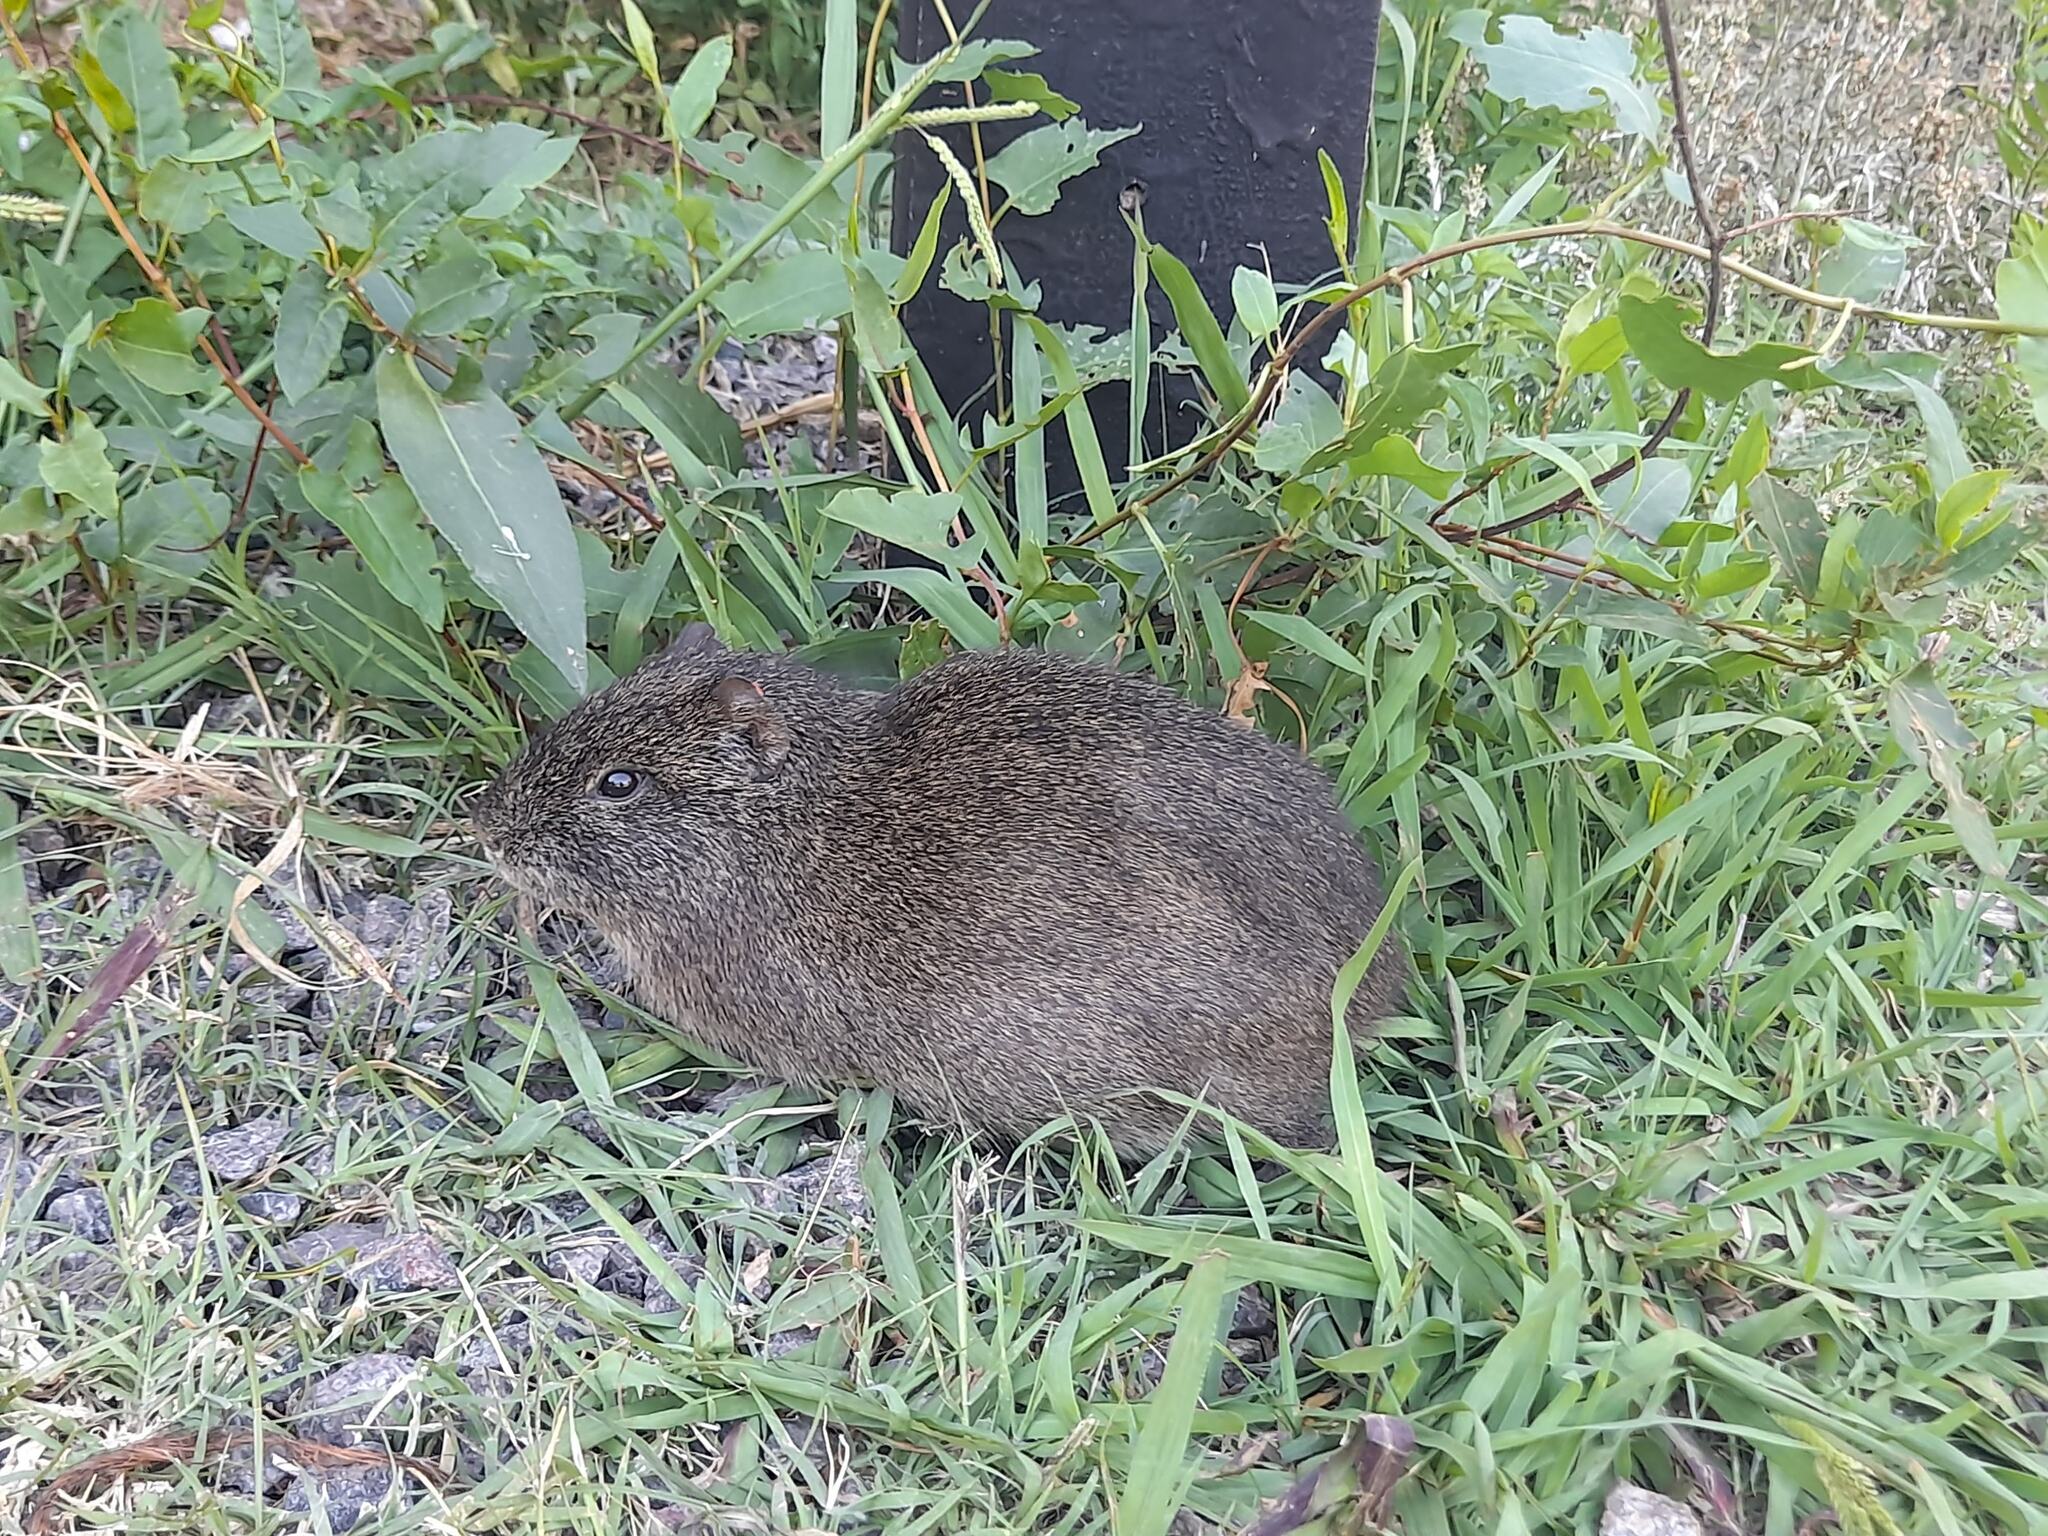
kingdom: Animalia
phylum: Chordata
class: Mammalia
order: Rodentia
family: Caviidae
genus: Cavia
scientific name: Cavia aperea
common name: Brazilian guinea pig
